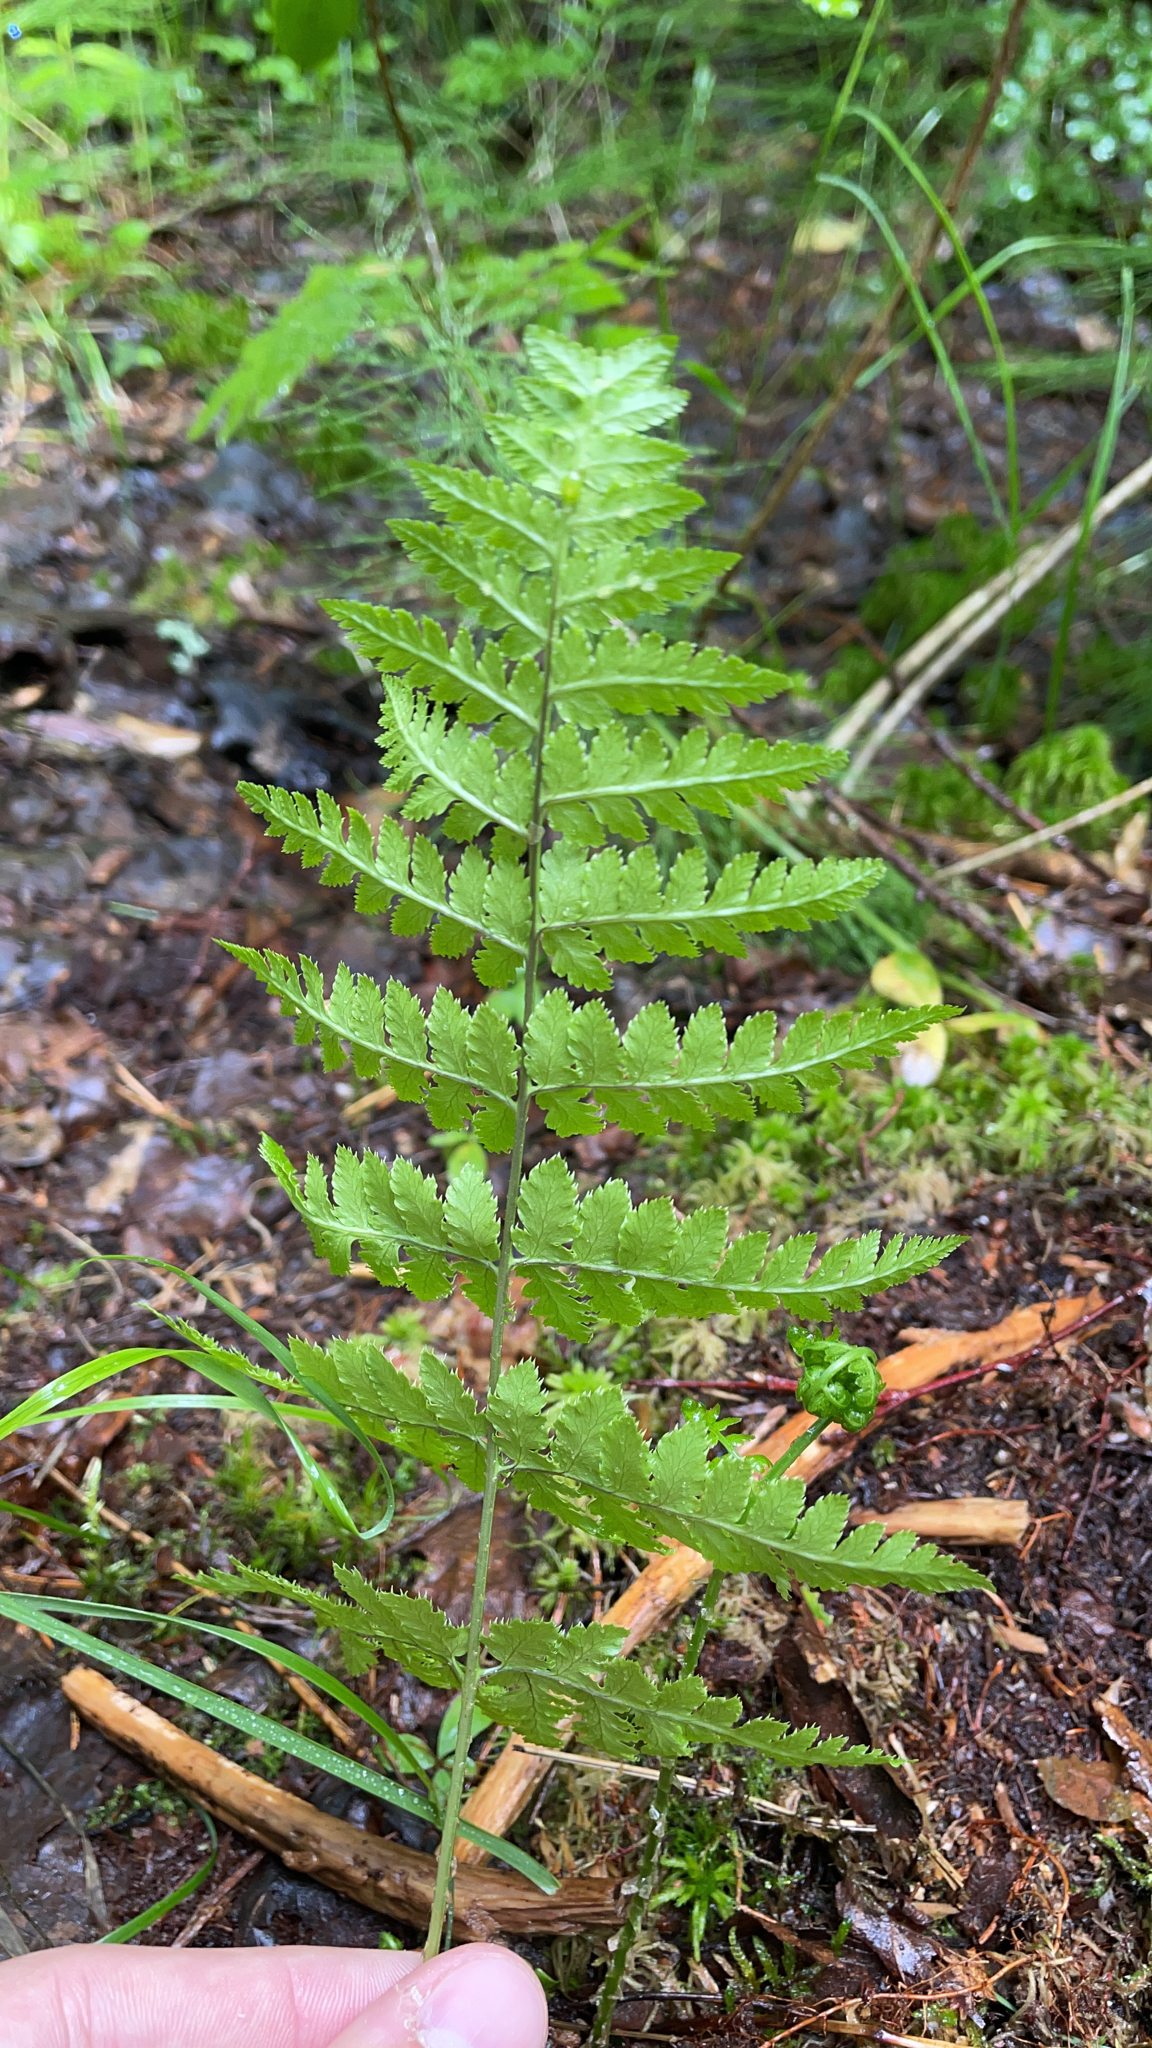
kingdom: Plantae
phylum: Tracheophyta
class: Polypodiopsida
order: Polypodiales
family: Dryopteridaceae
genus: Dryopteris
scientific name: Dryopteris carthusiana
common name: Narrow buckler-fern
